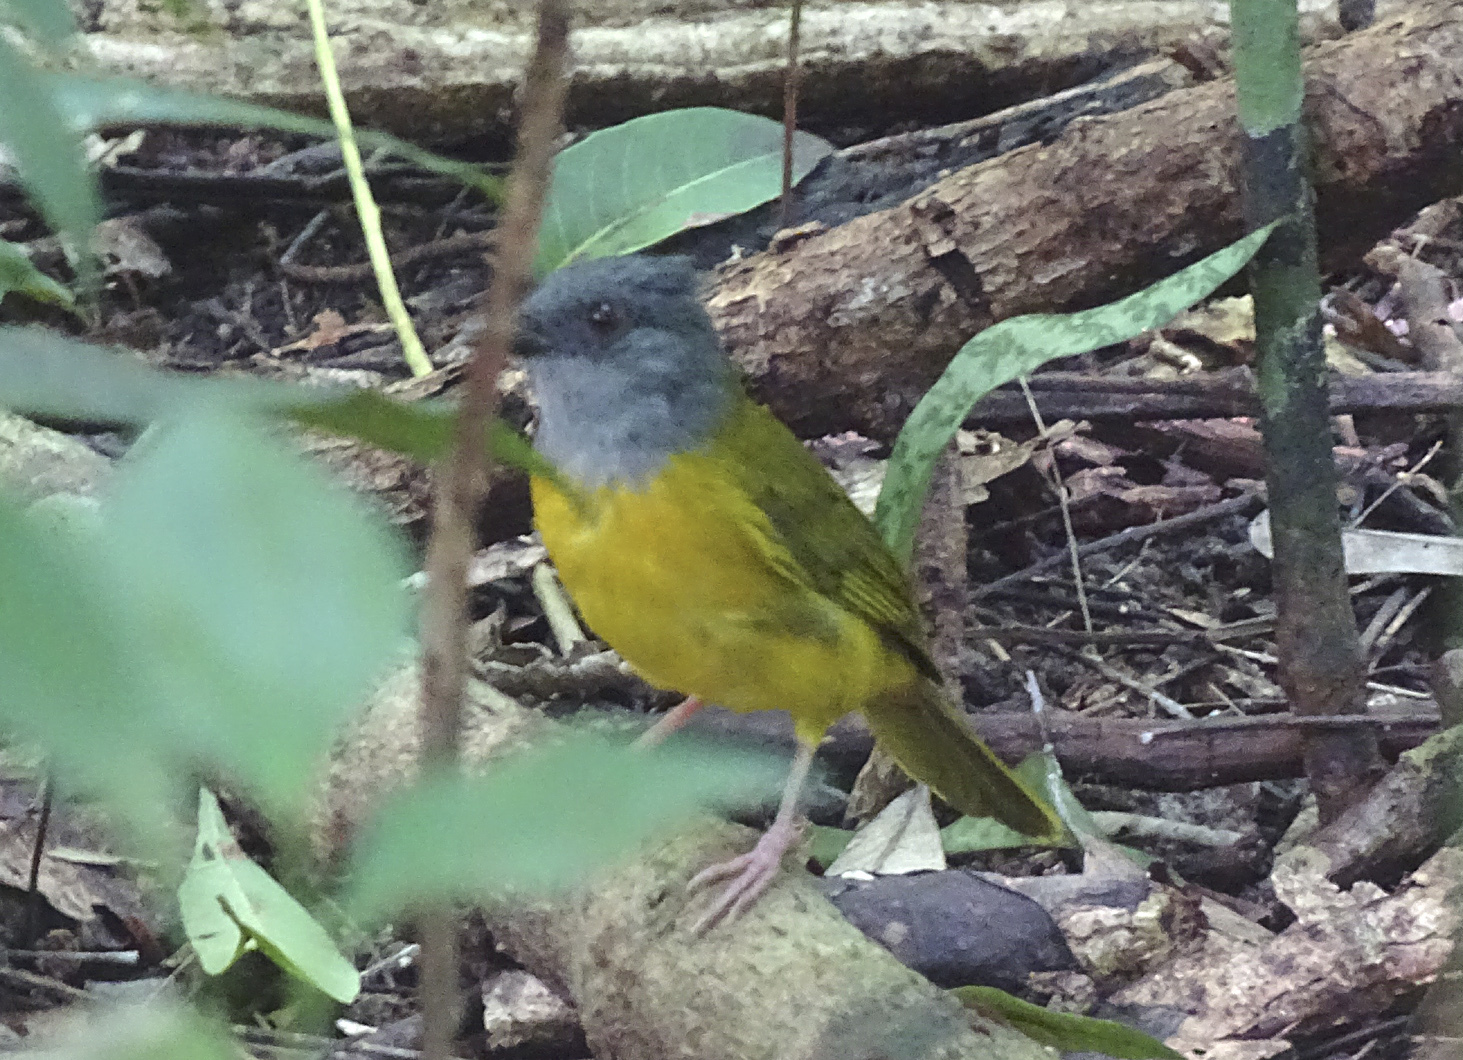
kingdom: Animalia
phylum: Chordata
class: Aves
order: Passeriformes
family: Thraupidae
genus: Eucometis
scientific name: Eucometis penicillata
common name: Grey-headed tanager
